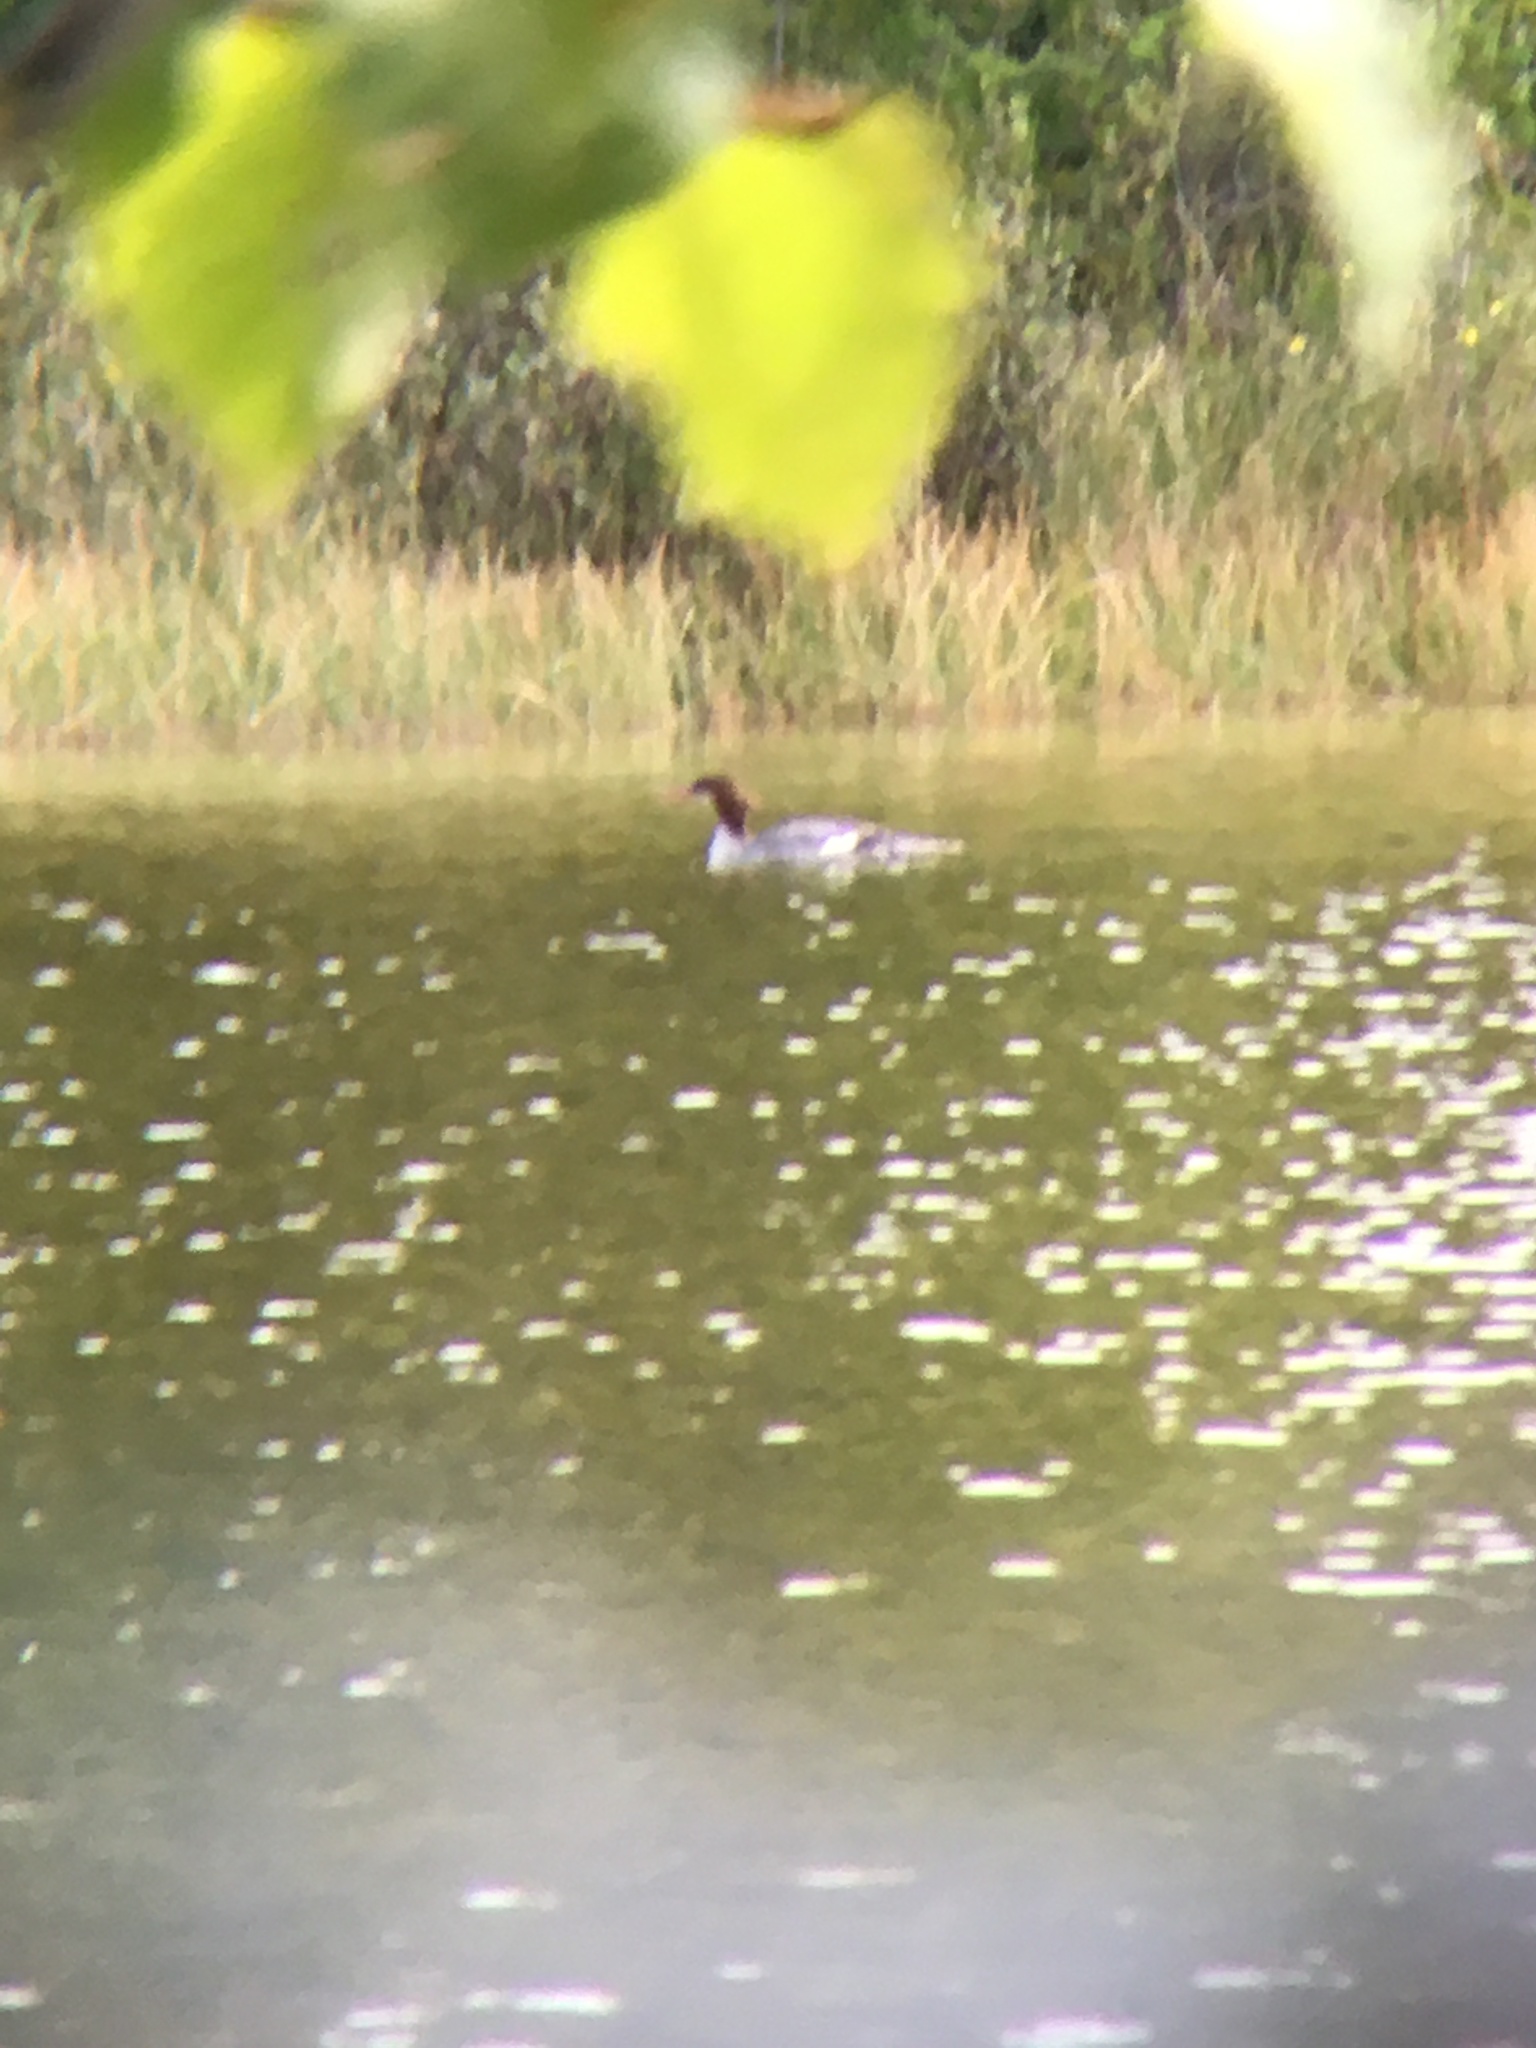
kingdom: Animalia
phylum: Chordata
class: Aves
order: Anseriformes
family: Anatidae
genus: Mergus
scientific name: Mergus merganser
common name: Common merganser
